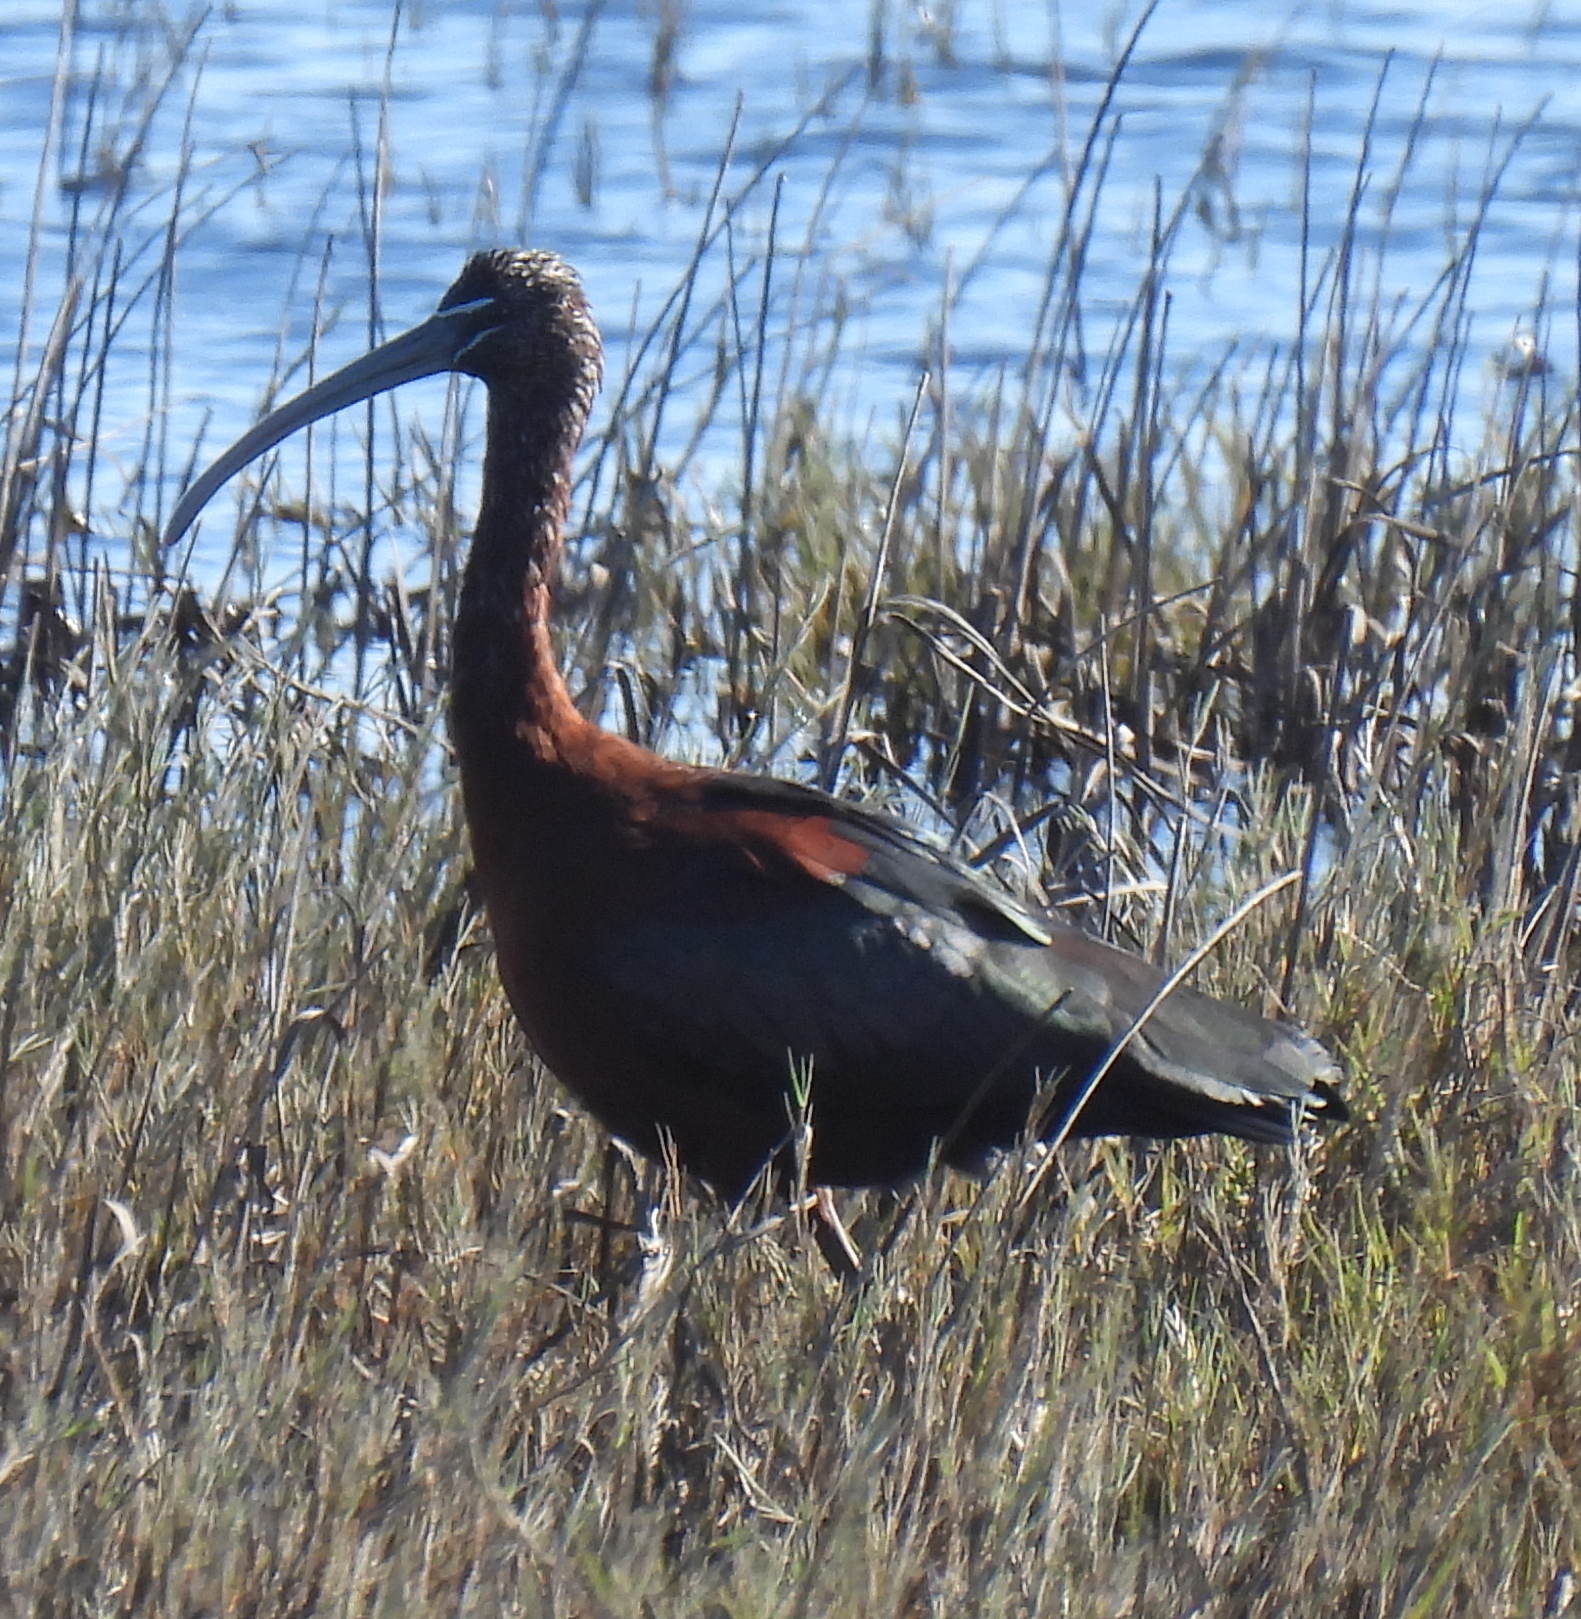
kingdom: Animalia
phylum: Chordata
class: Aves
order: Pelecaniformes
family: Threskiornithidae
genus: Plegadis
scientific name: Plegadis falcinellus
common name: Glossy ibis
